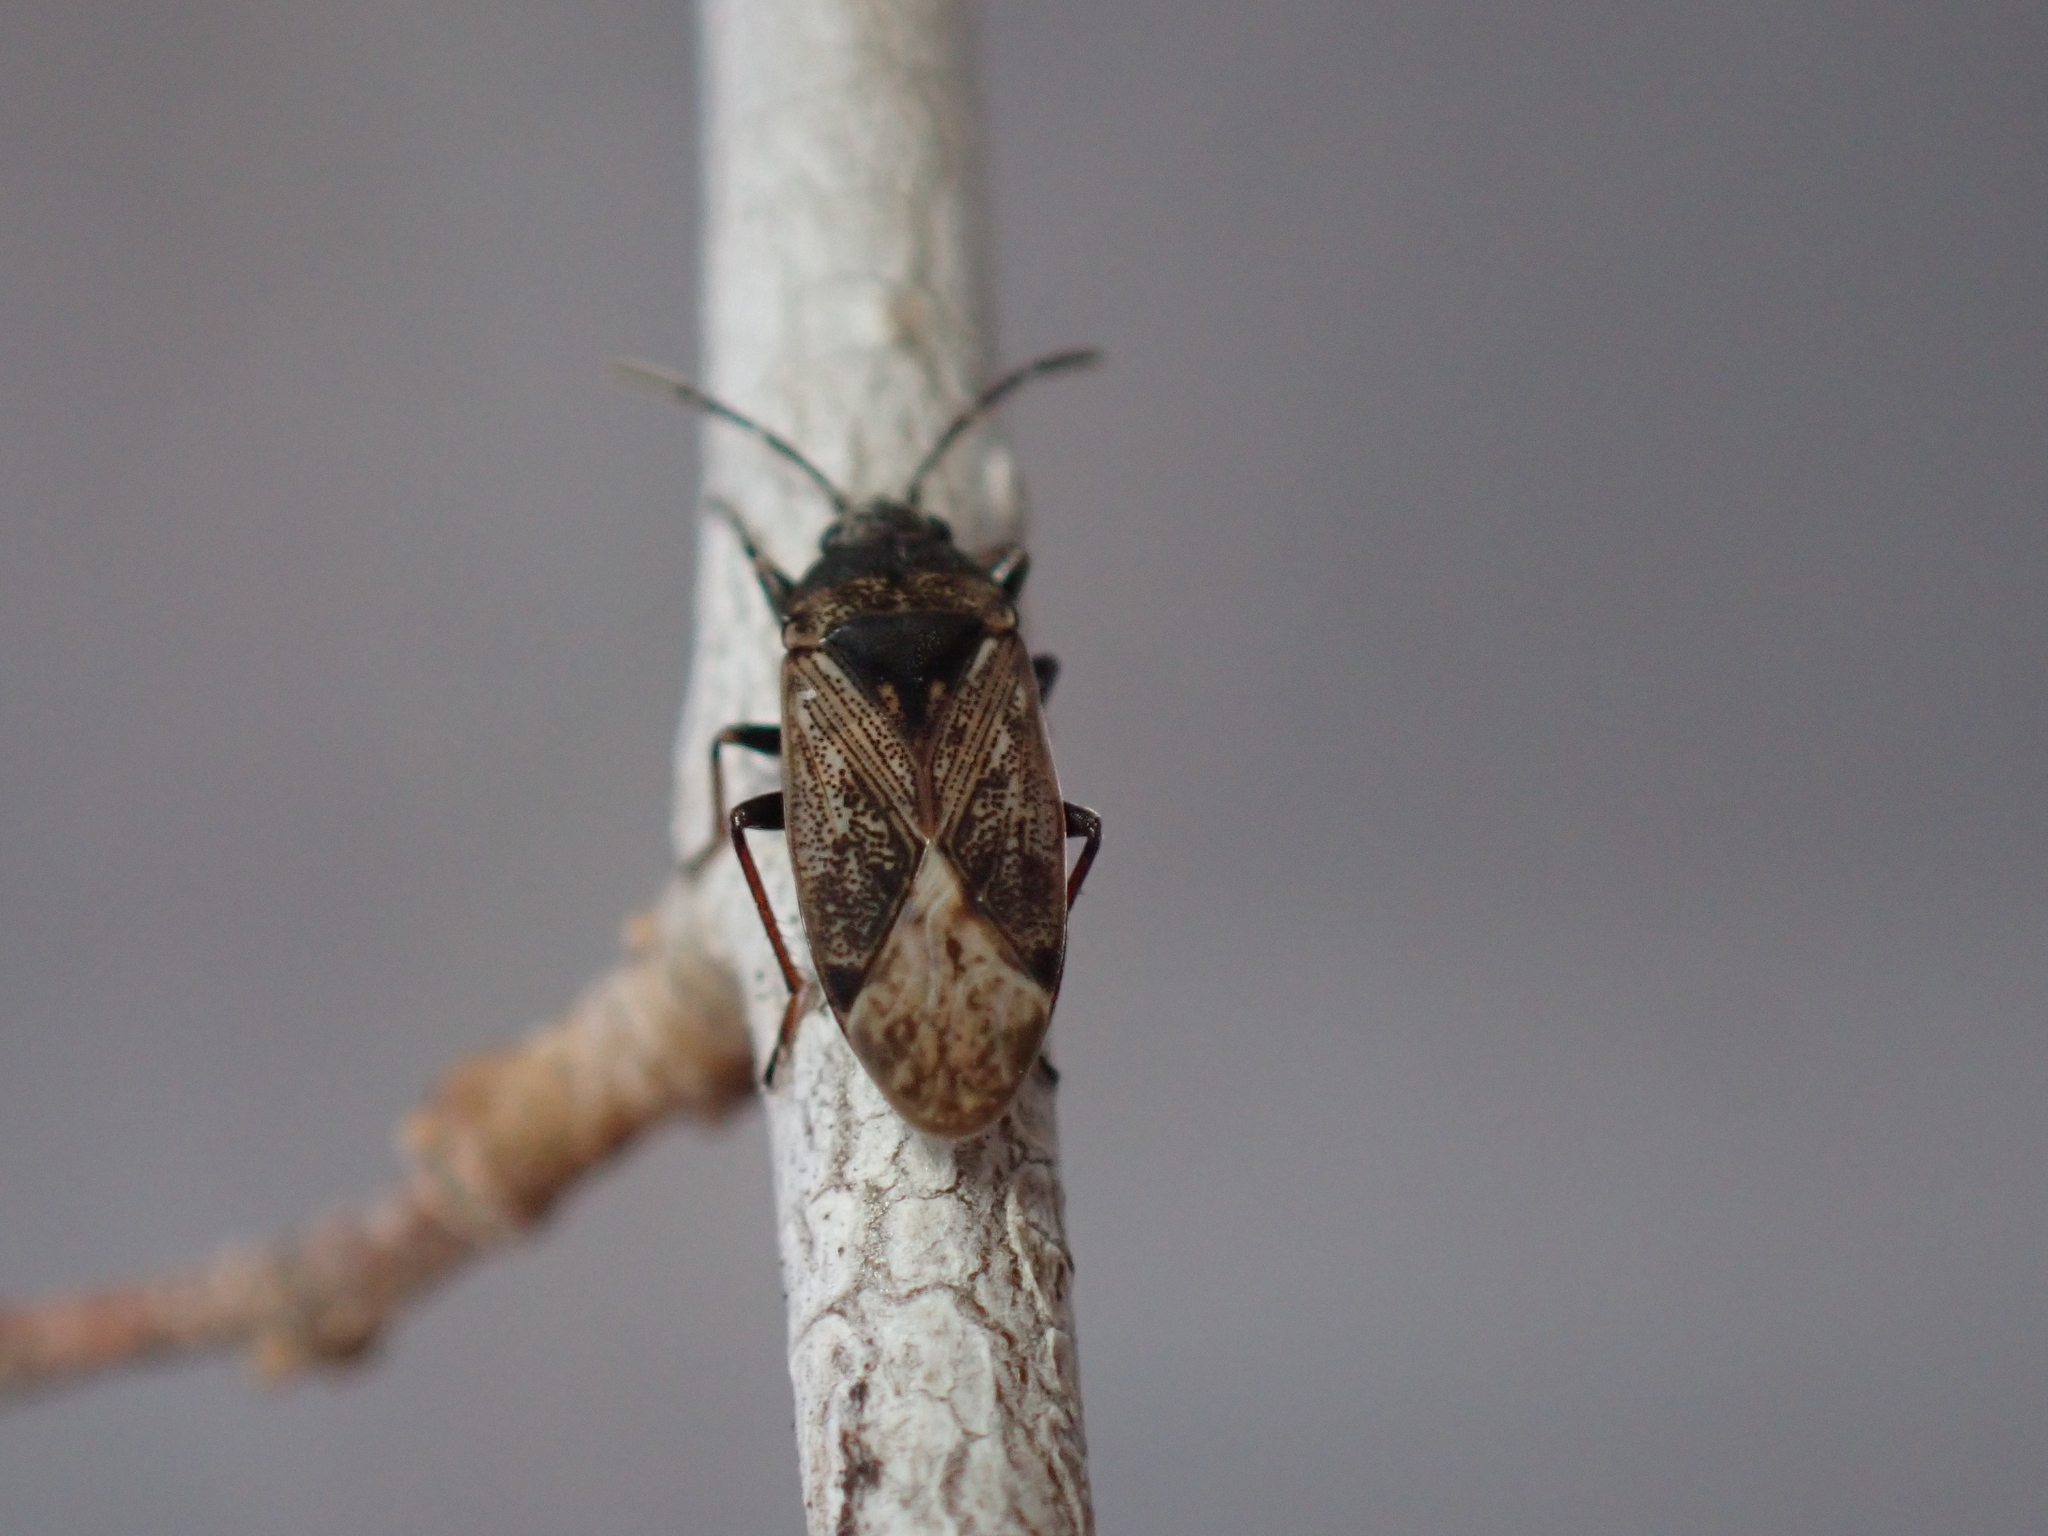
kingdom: Animalia
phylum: Arthropoda
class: Insecta
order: Hemiptera
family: Rhyparochromidae
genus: Peritrechus
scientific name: Peritrechus convivus
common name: Seed bug
